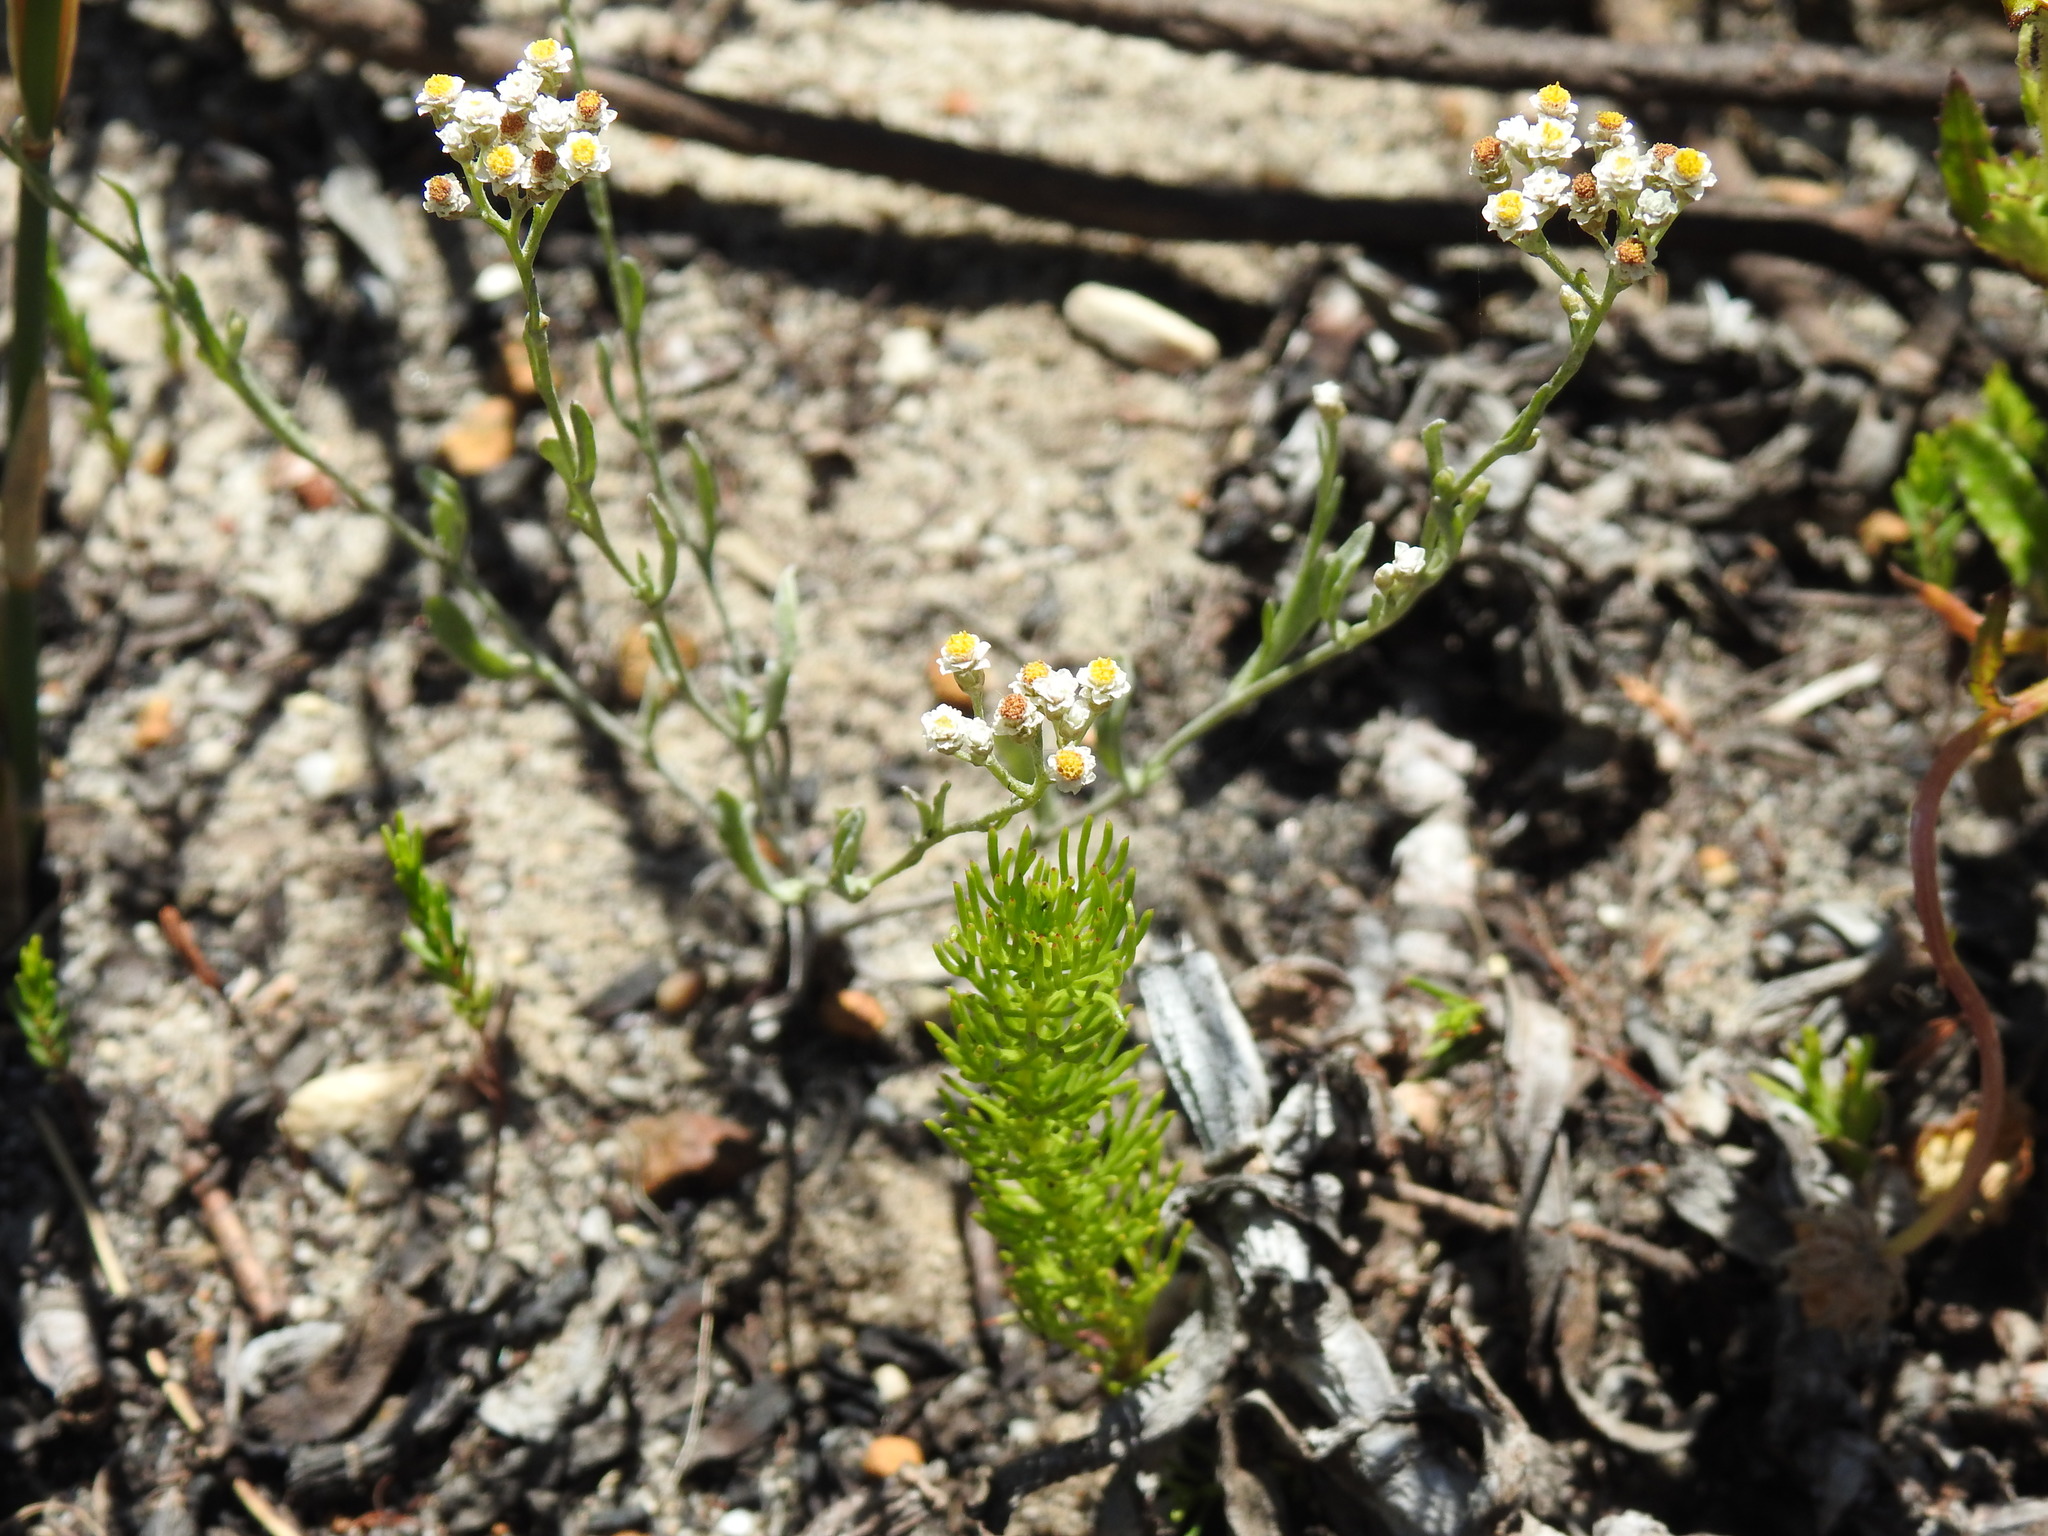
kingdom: Plantae
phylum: Tracheophyta
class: Magnoliopsida
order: Asterales
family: Asteraceae
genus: Helichrysum
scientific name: Helichrysum indicum
